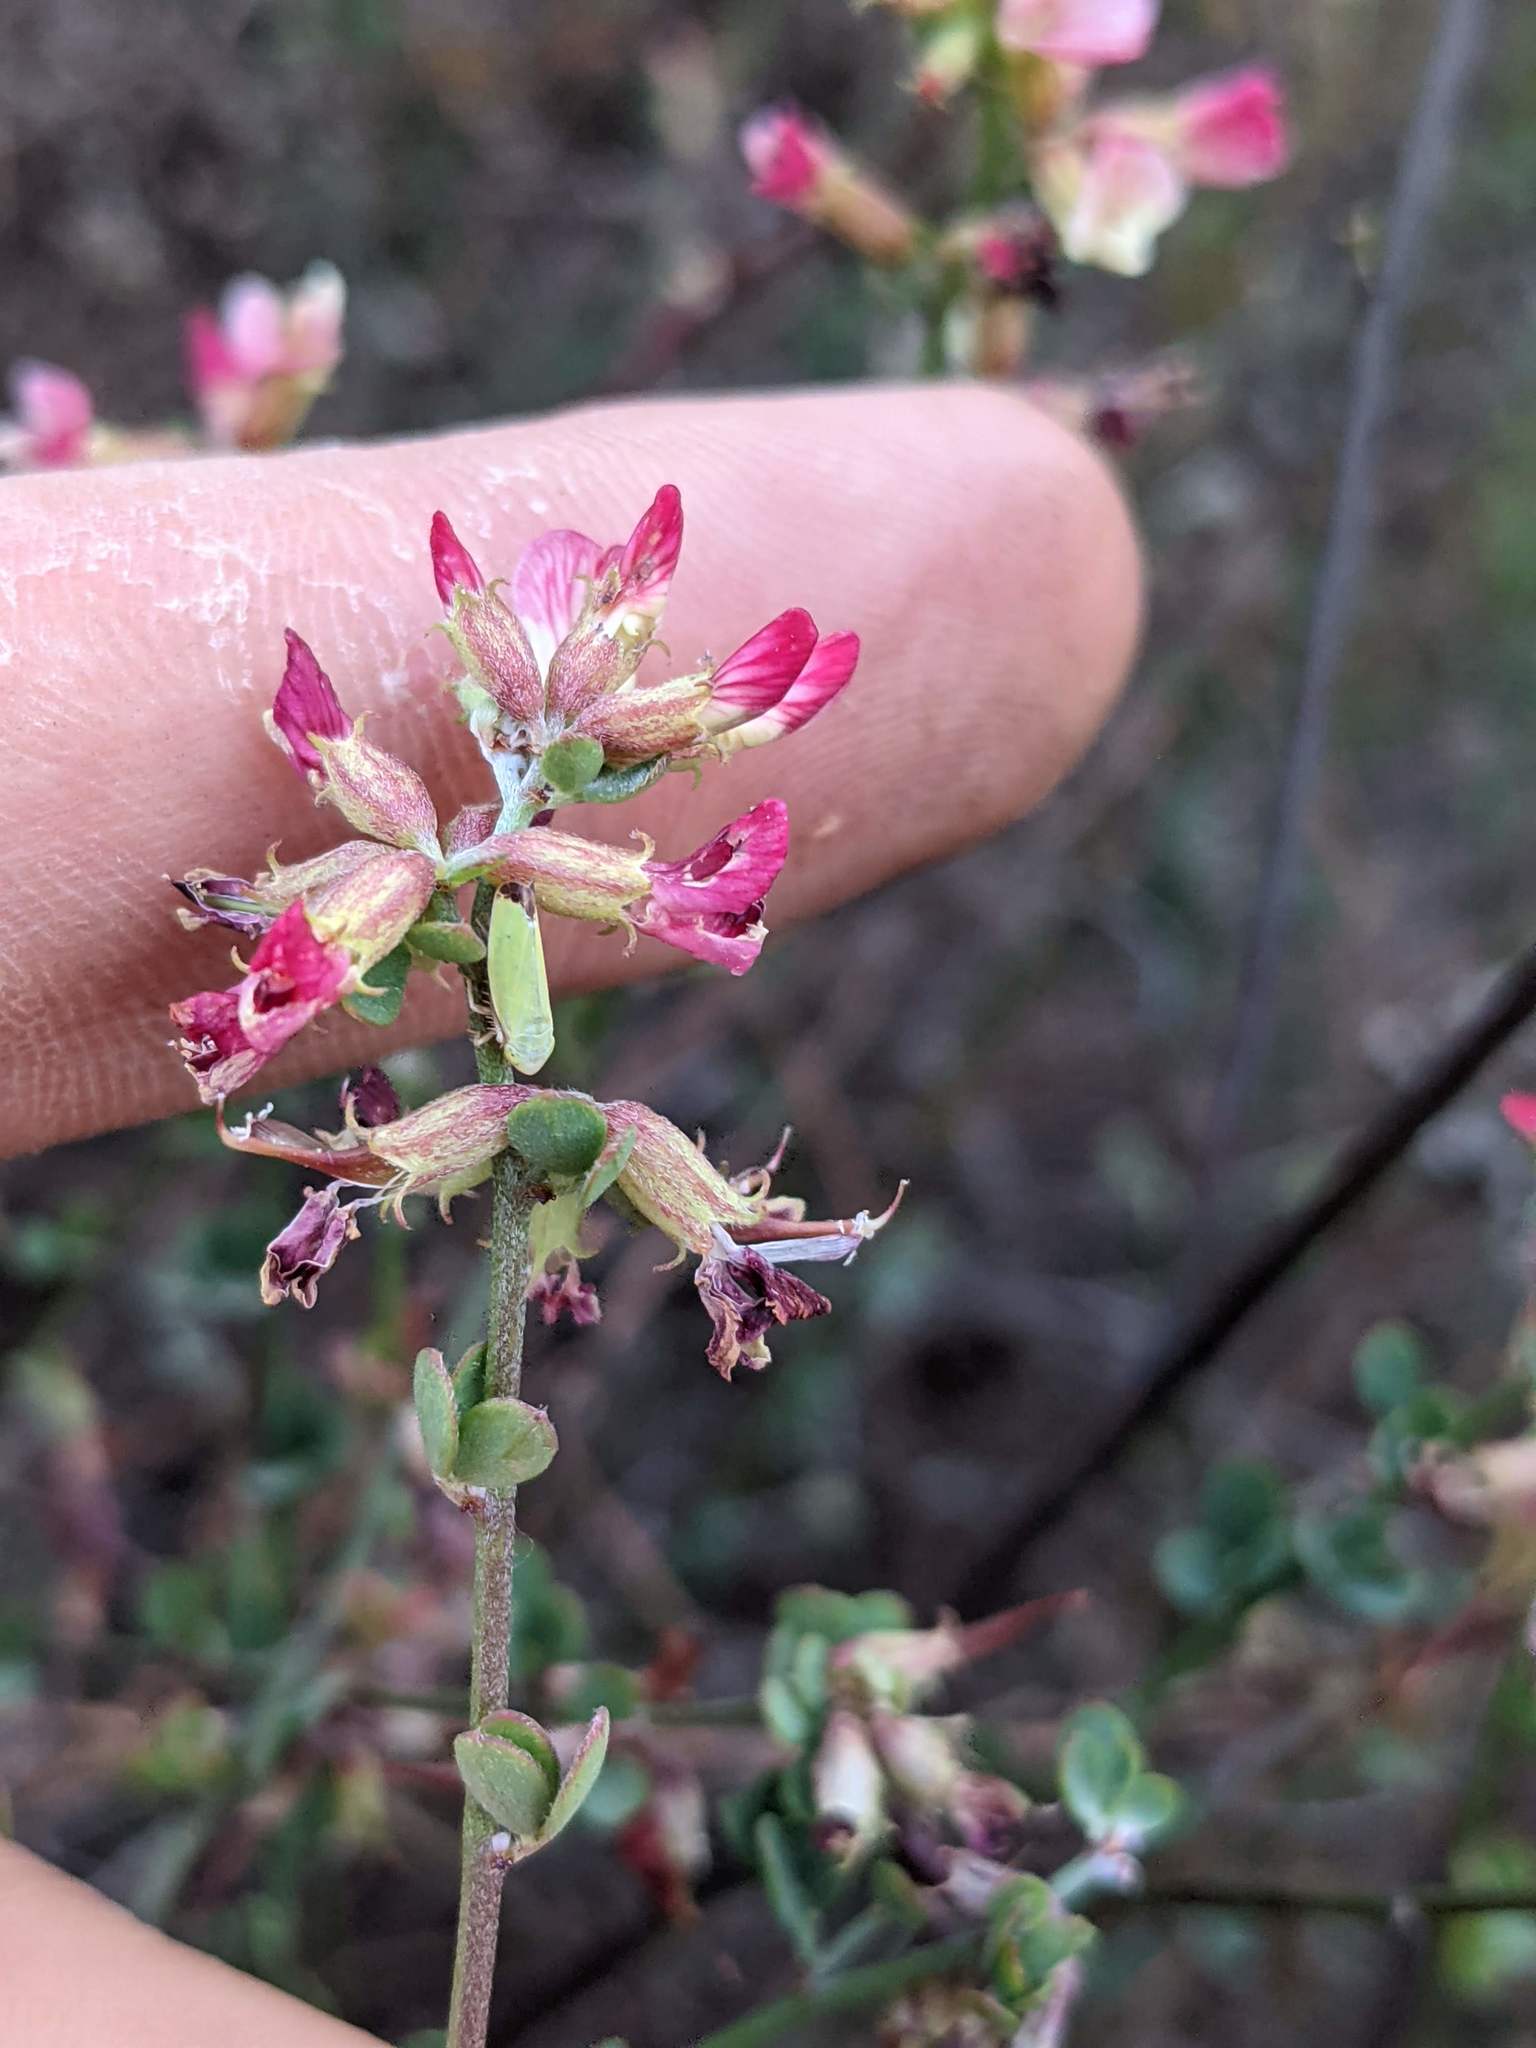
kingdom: Plantae
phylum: Tracheophyta
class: Magnoliopsida
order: Fabales
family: Fabaceae
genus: Acmispon
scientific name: Acmispon cytisoides
